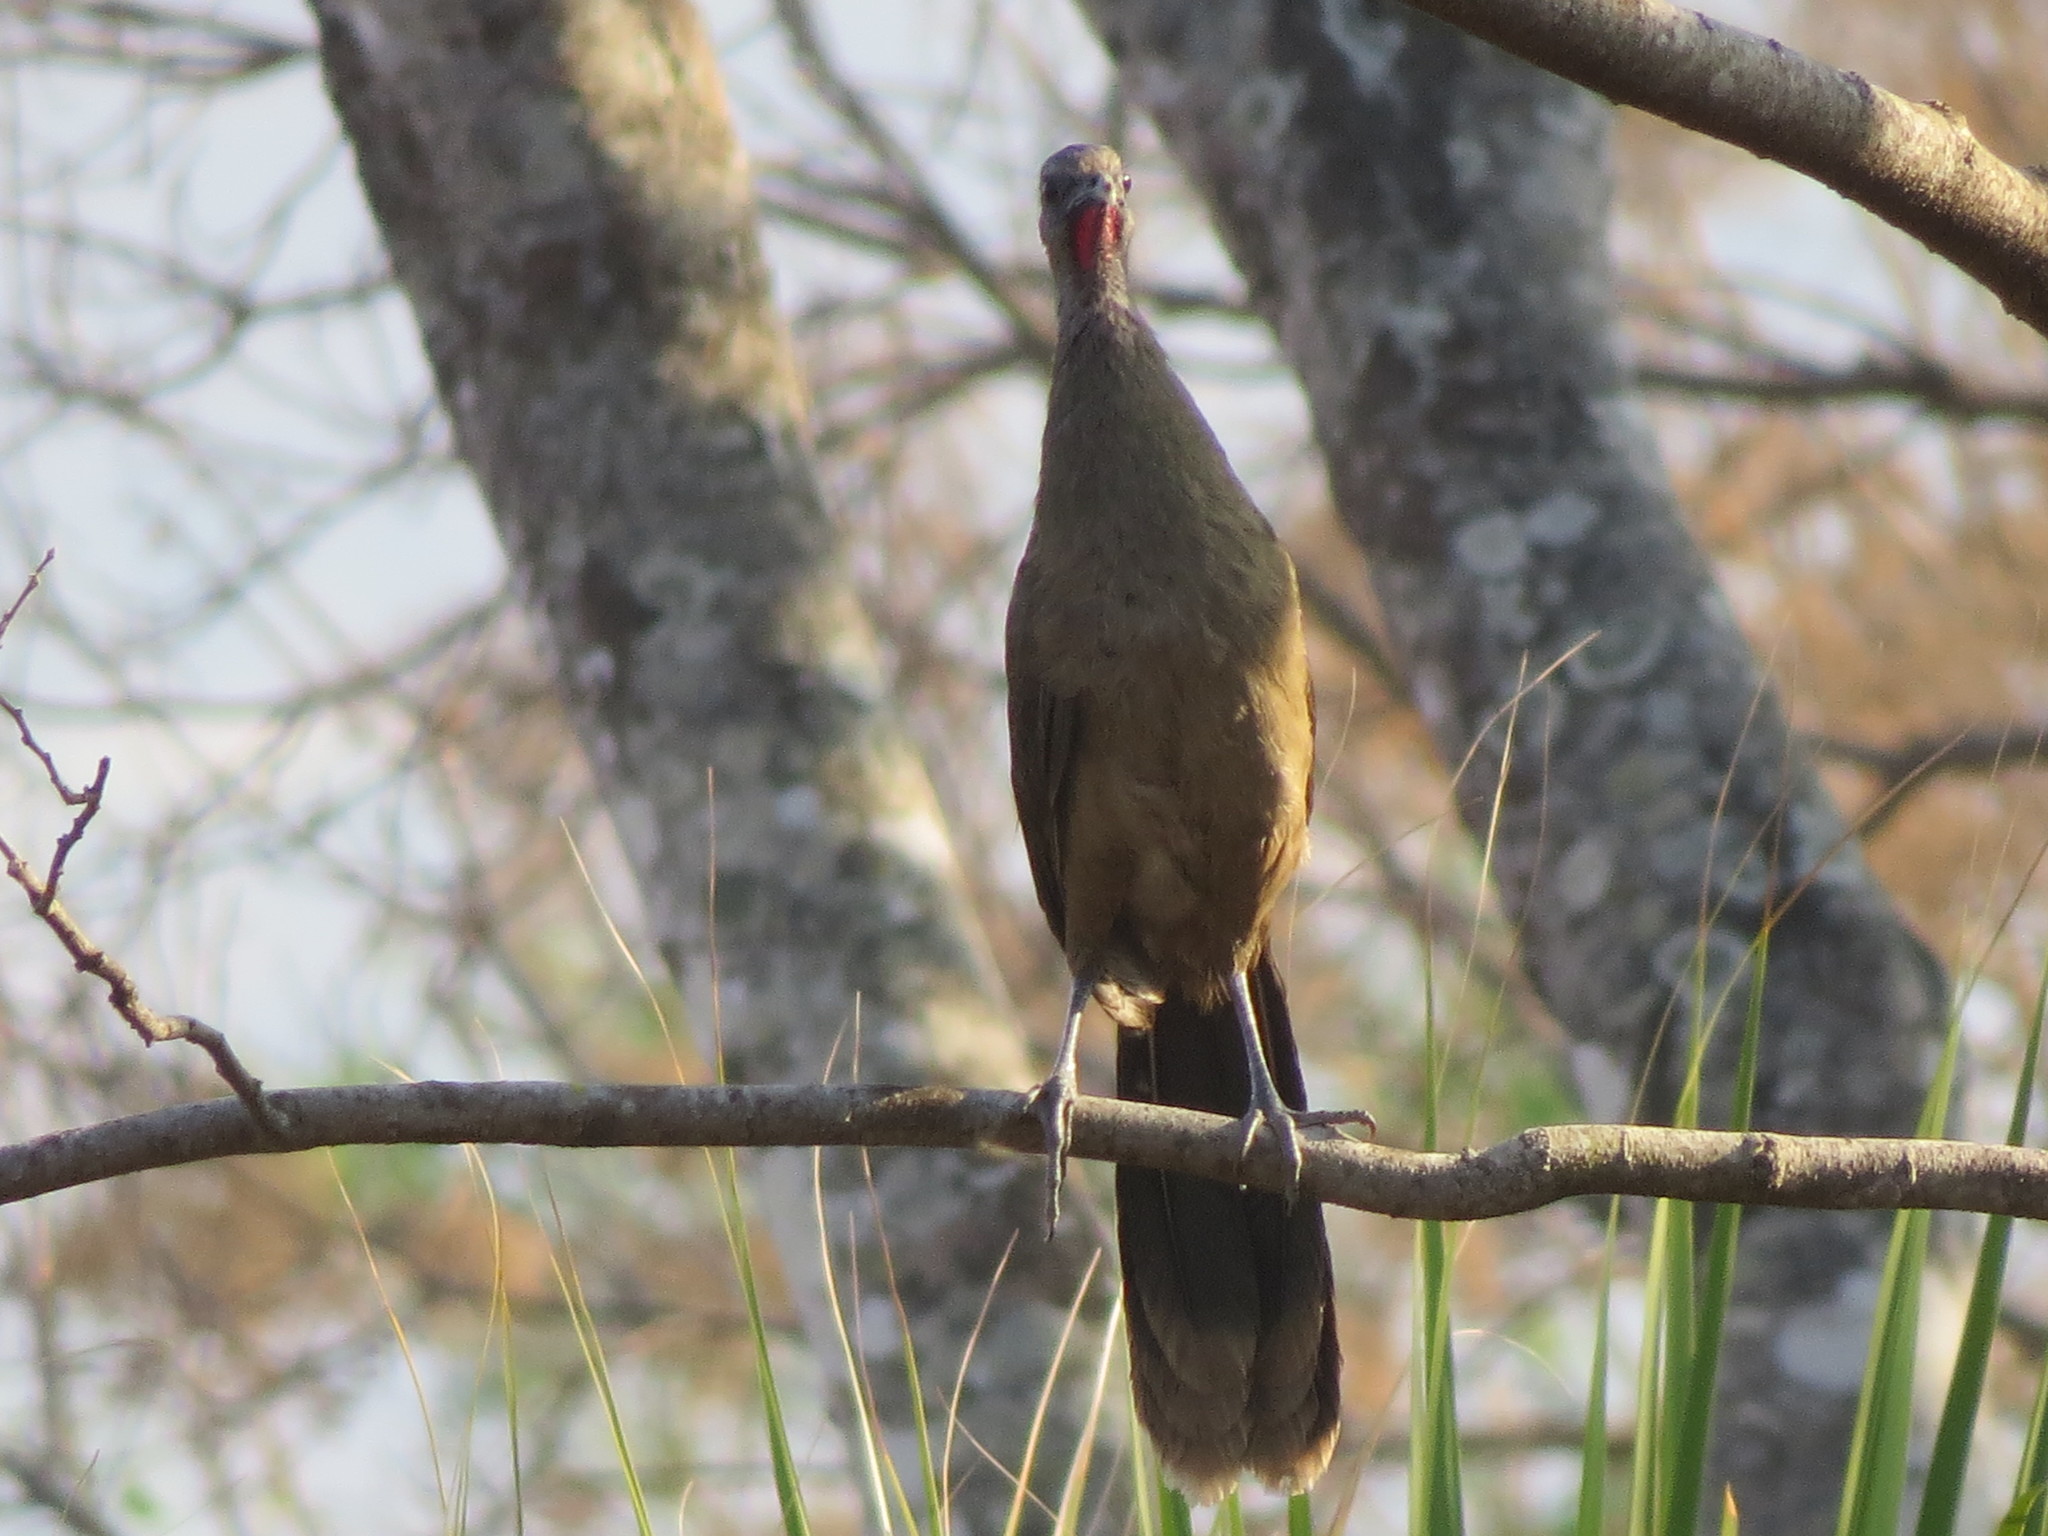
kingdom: Animalia
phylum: Chordata
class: Aves
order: Galliformes
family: Cracidae
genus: Ortalis
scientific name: Ortalis vetula
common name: Plain chachalaca
